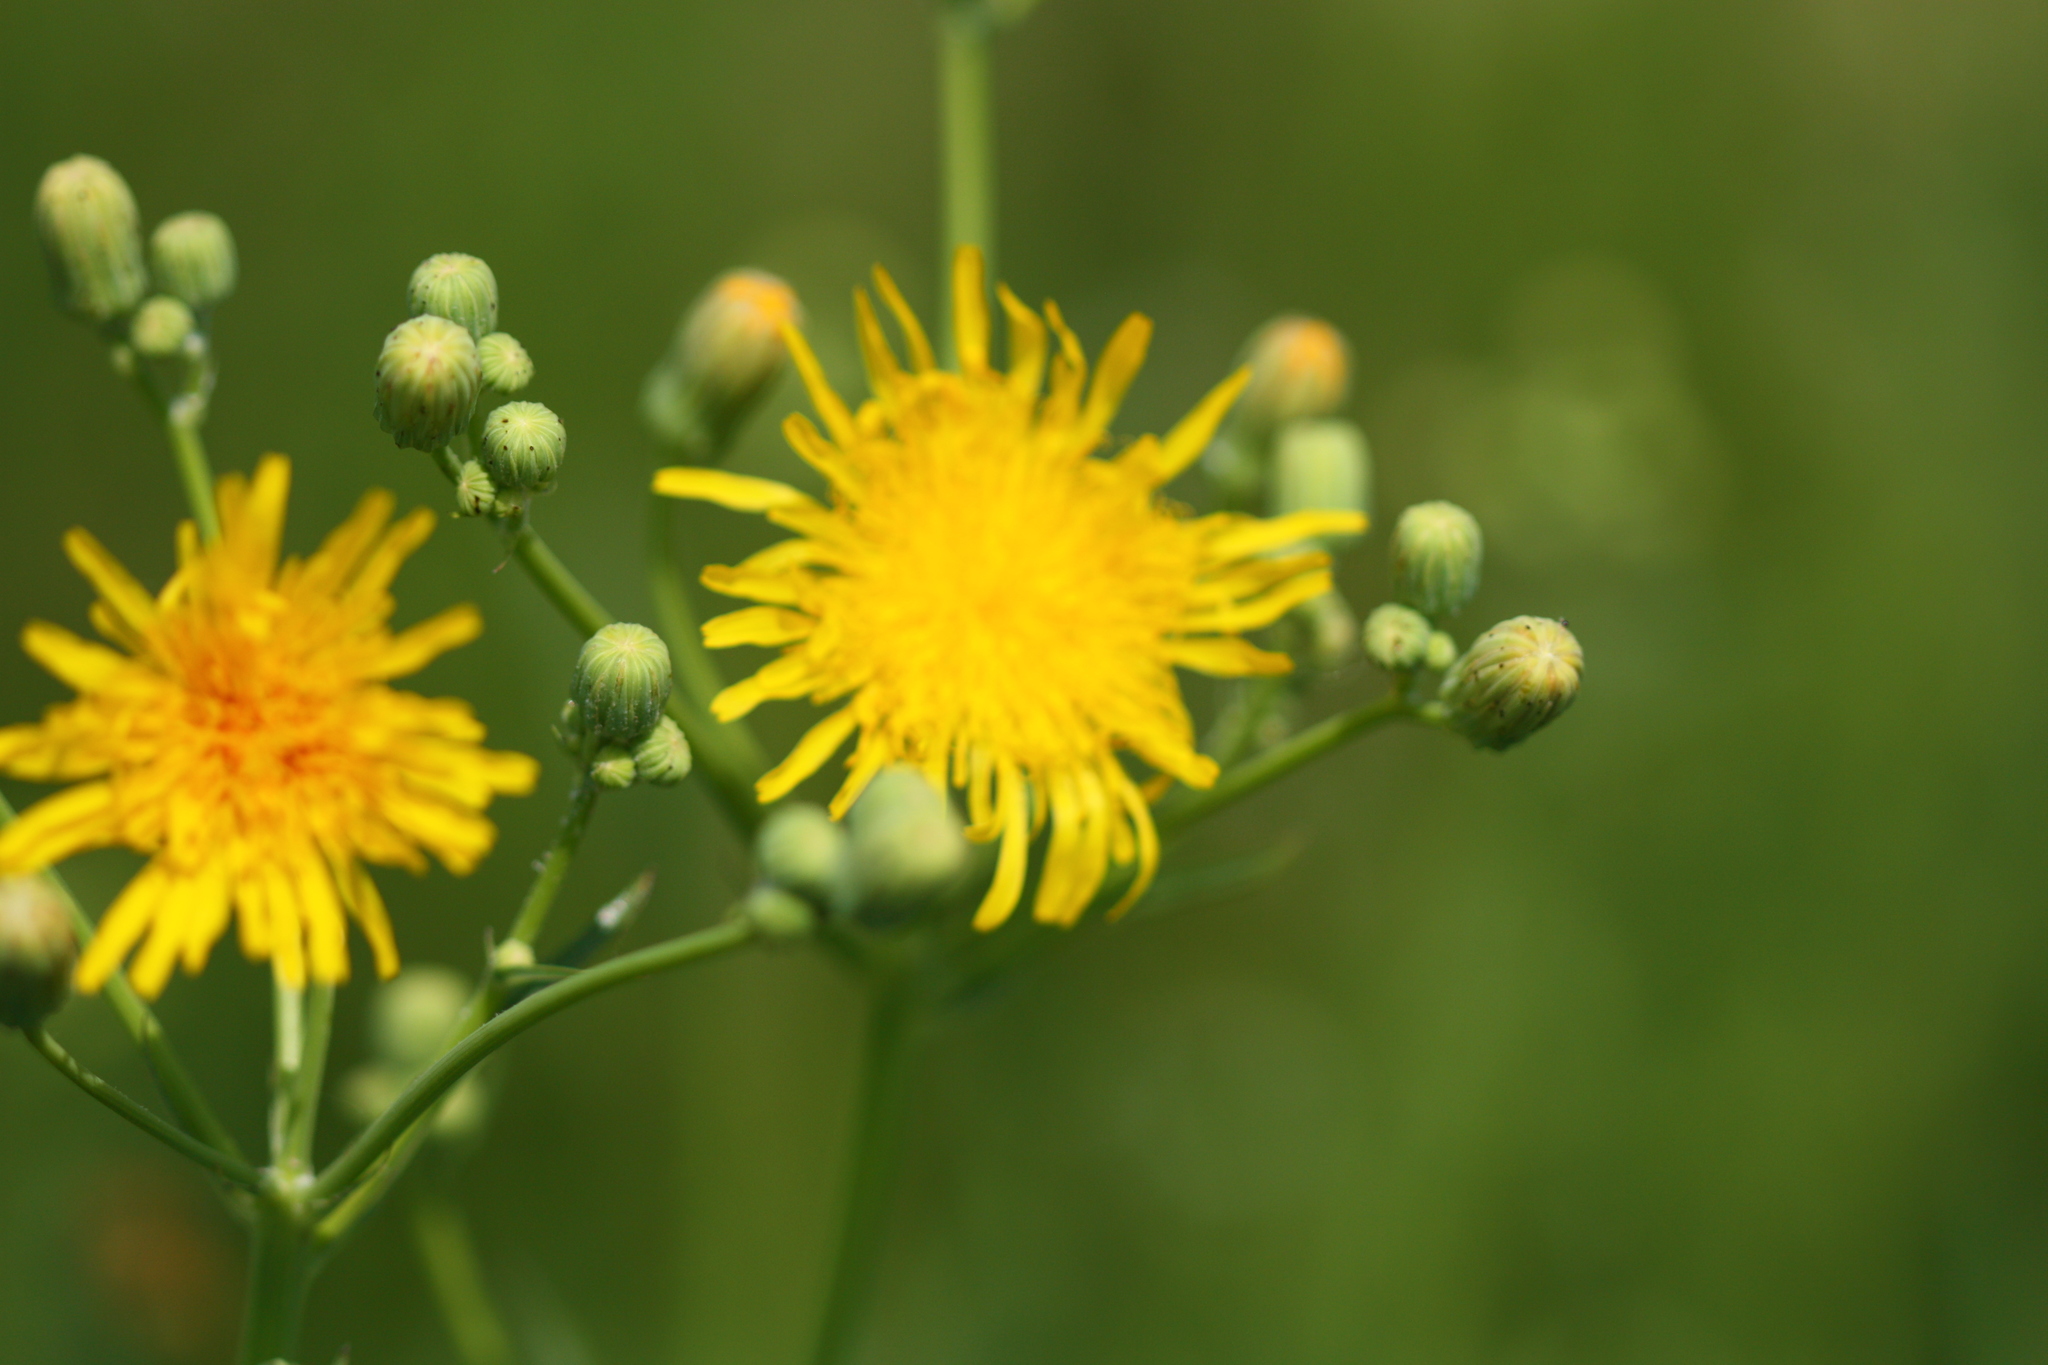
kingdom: Plantae
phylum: Tracheophyta
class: Magnoliopsida
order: Asterales
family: Asteraceae
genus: Sonchus
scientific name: Sonchus arvensis
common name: Perennial sow-thistle
